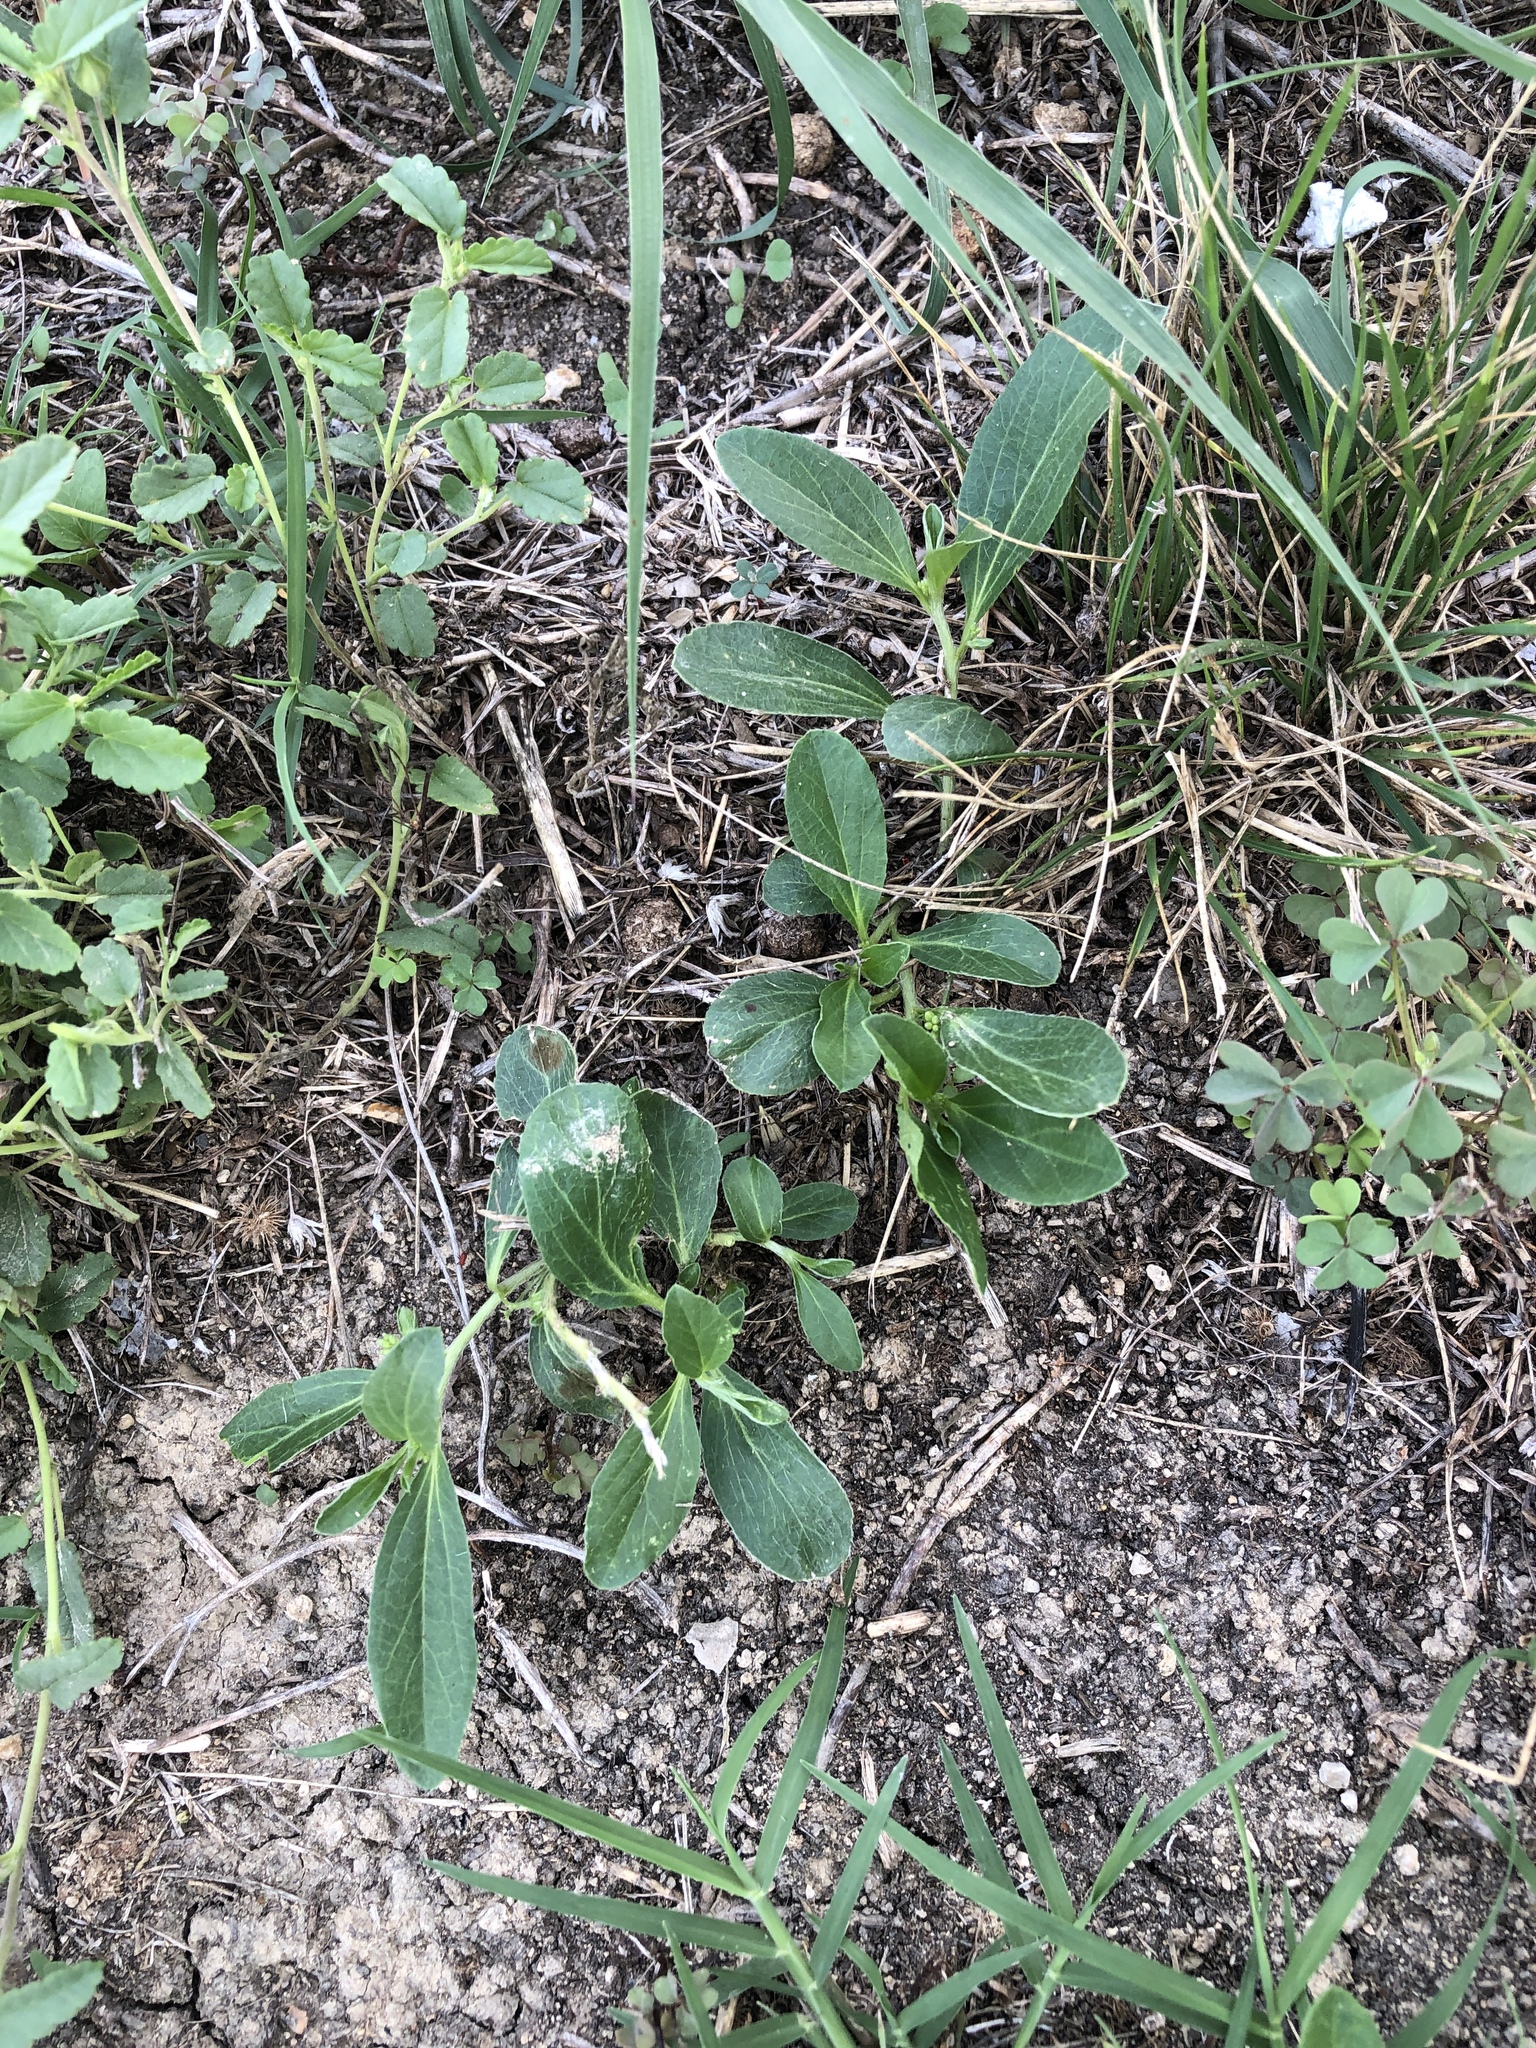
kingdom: Plantae
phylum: Tracheophyta
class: Magnoliopsida
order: Malpighiales
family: Euphorbiaceae
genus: Ditaxis
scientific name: Ditaxis humilis
